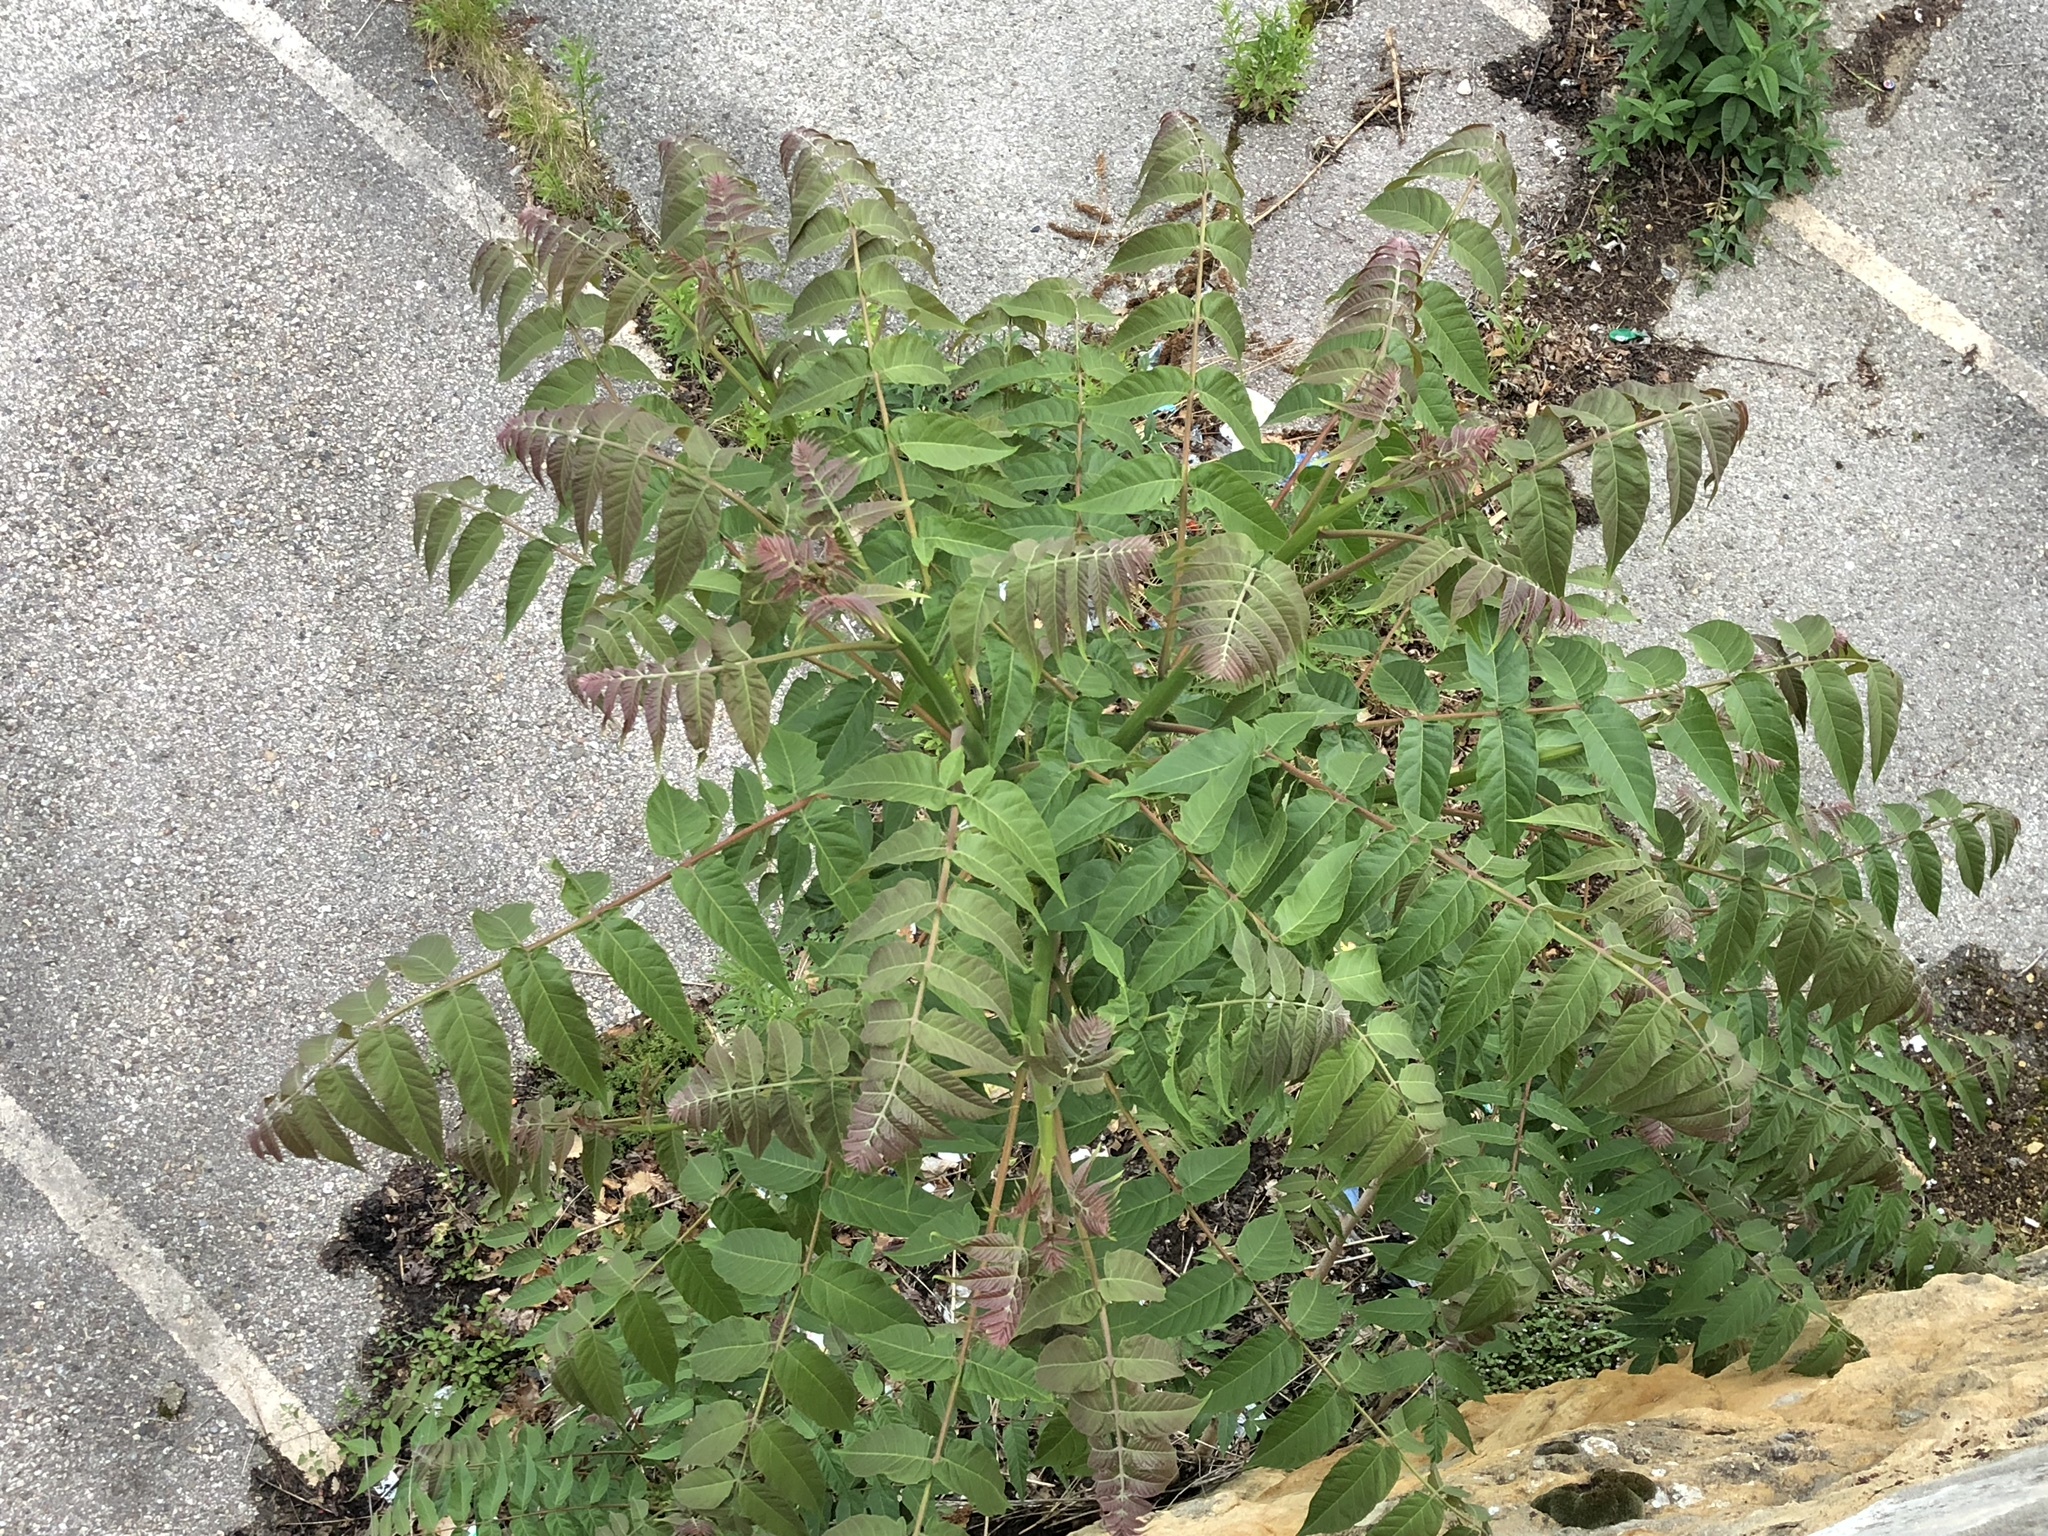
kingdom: Plantae
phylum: Tracheophyta
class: Magnoliopsida
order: Sapindales
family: Simaroubaceae
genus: Ailanthus
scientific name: Ailanthus altissima
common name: Tree-of-heaven
